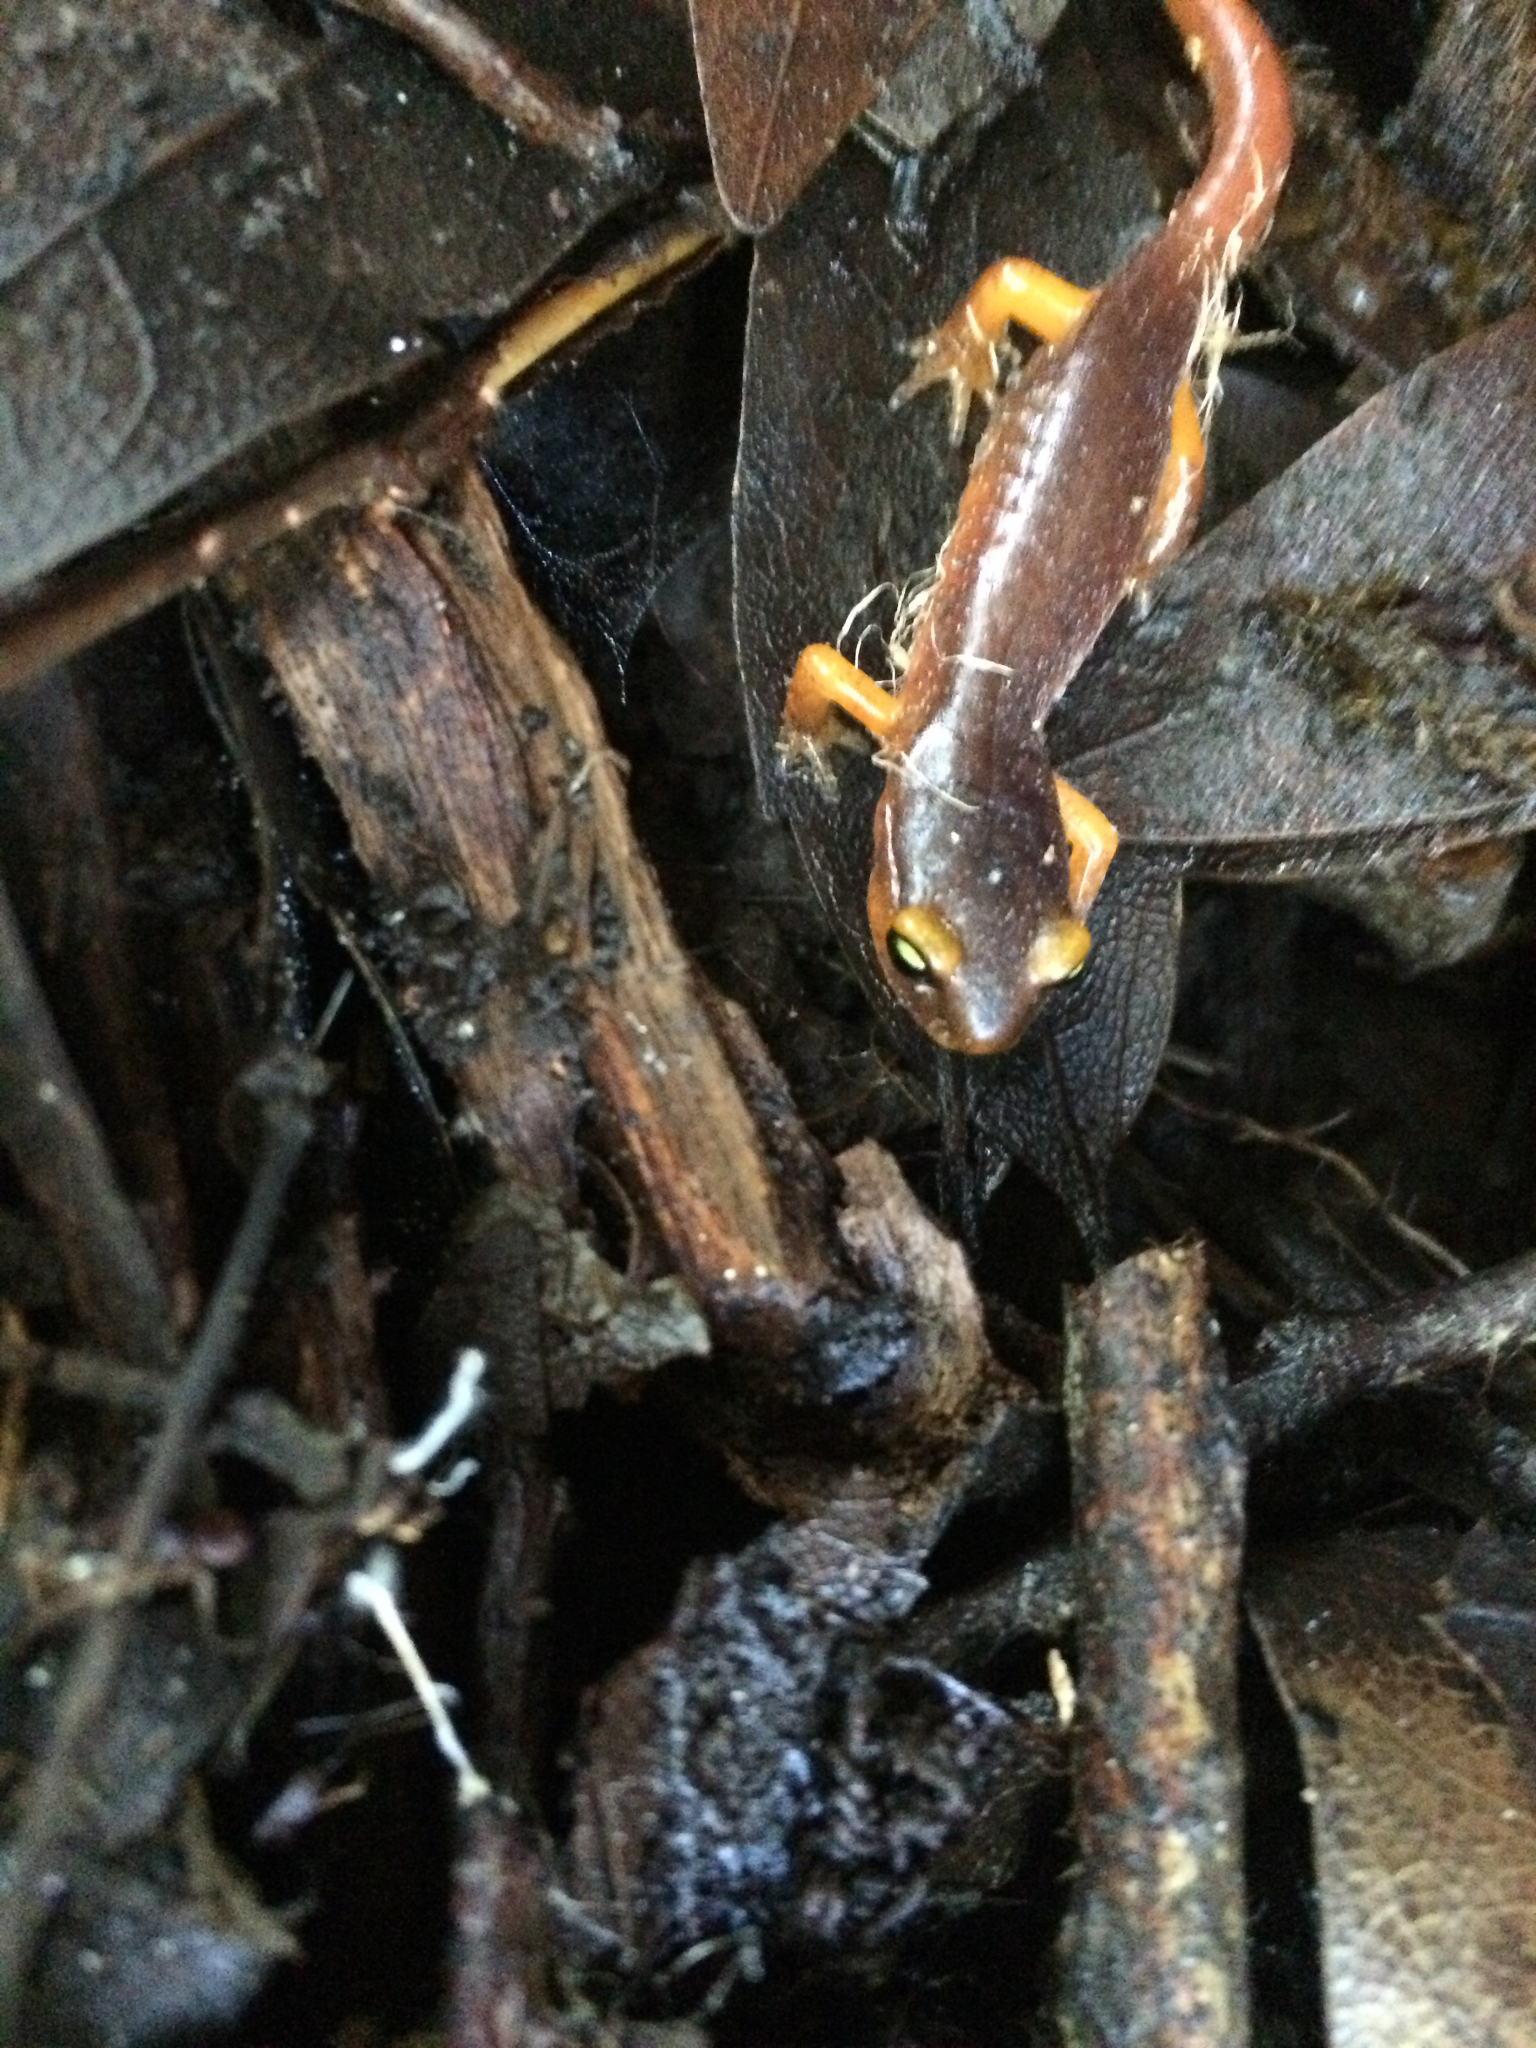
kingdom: Animalia
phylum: Chordata
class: Amphibia
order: Caudata
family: Plethodontidae
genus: Ensatina
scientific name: Ensatina eschscholtzii
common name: Ensatina
